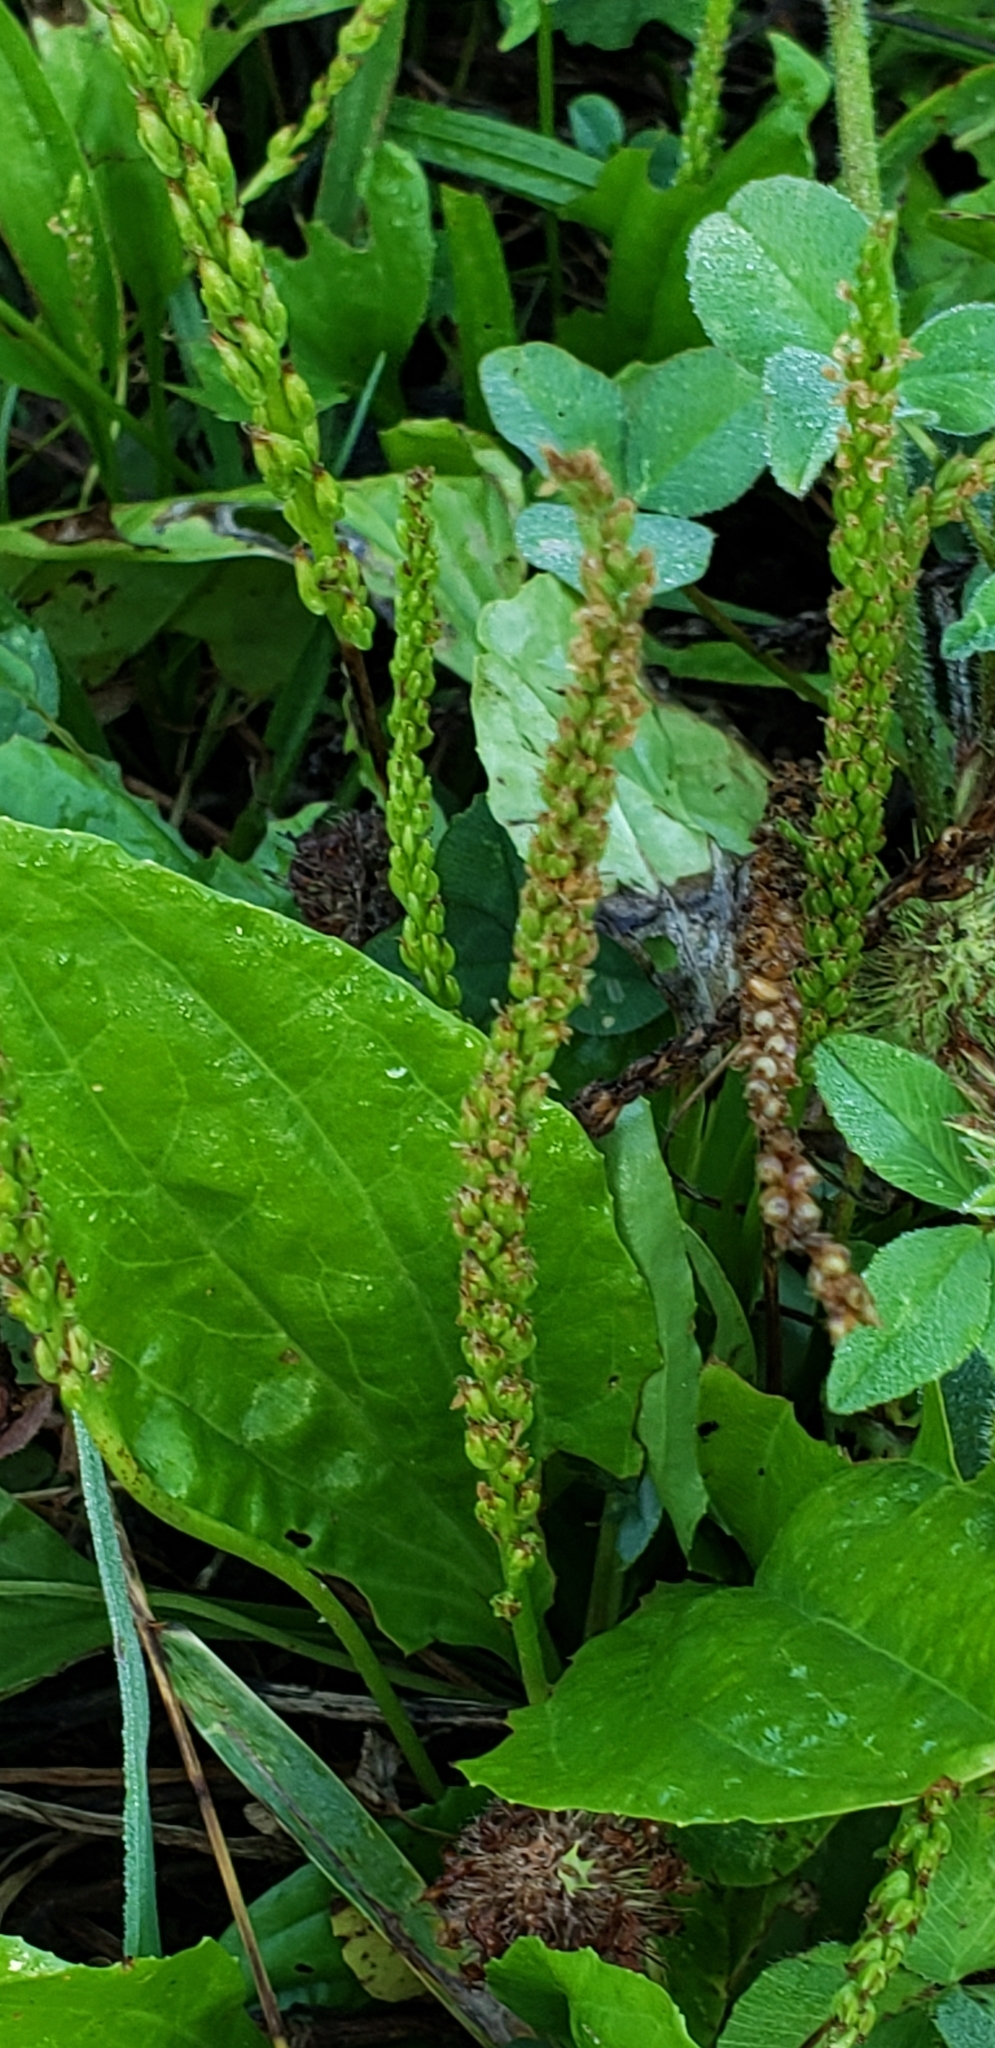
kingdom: Plantae
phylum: Tracheophyta
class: Magnoliopsida
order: Lamiales
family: Plantaginaceae
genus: Plantago
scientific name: Plantago major
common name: Common plantain
